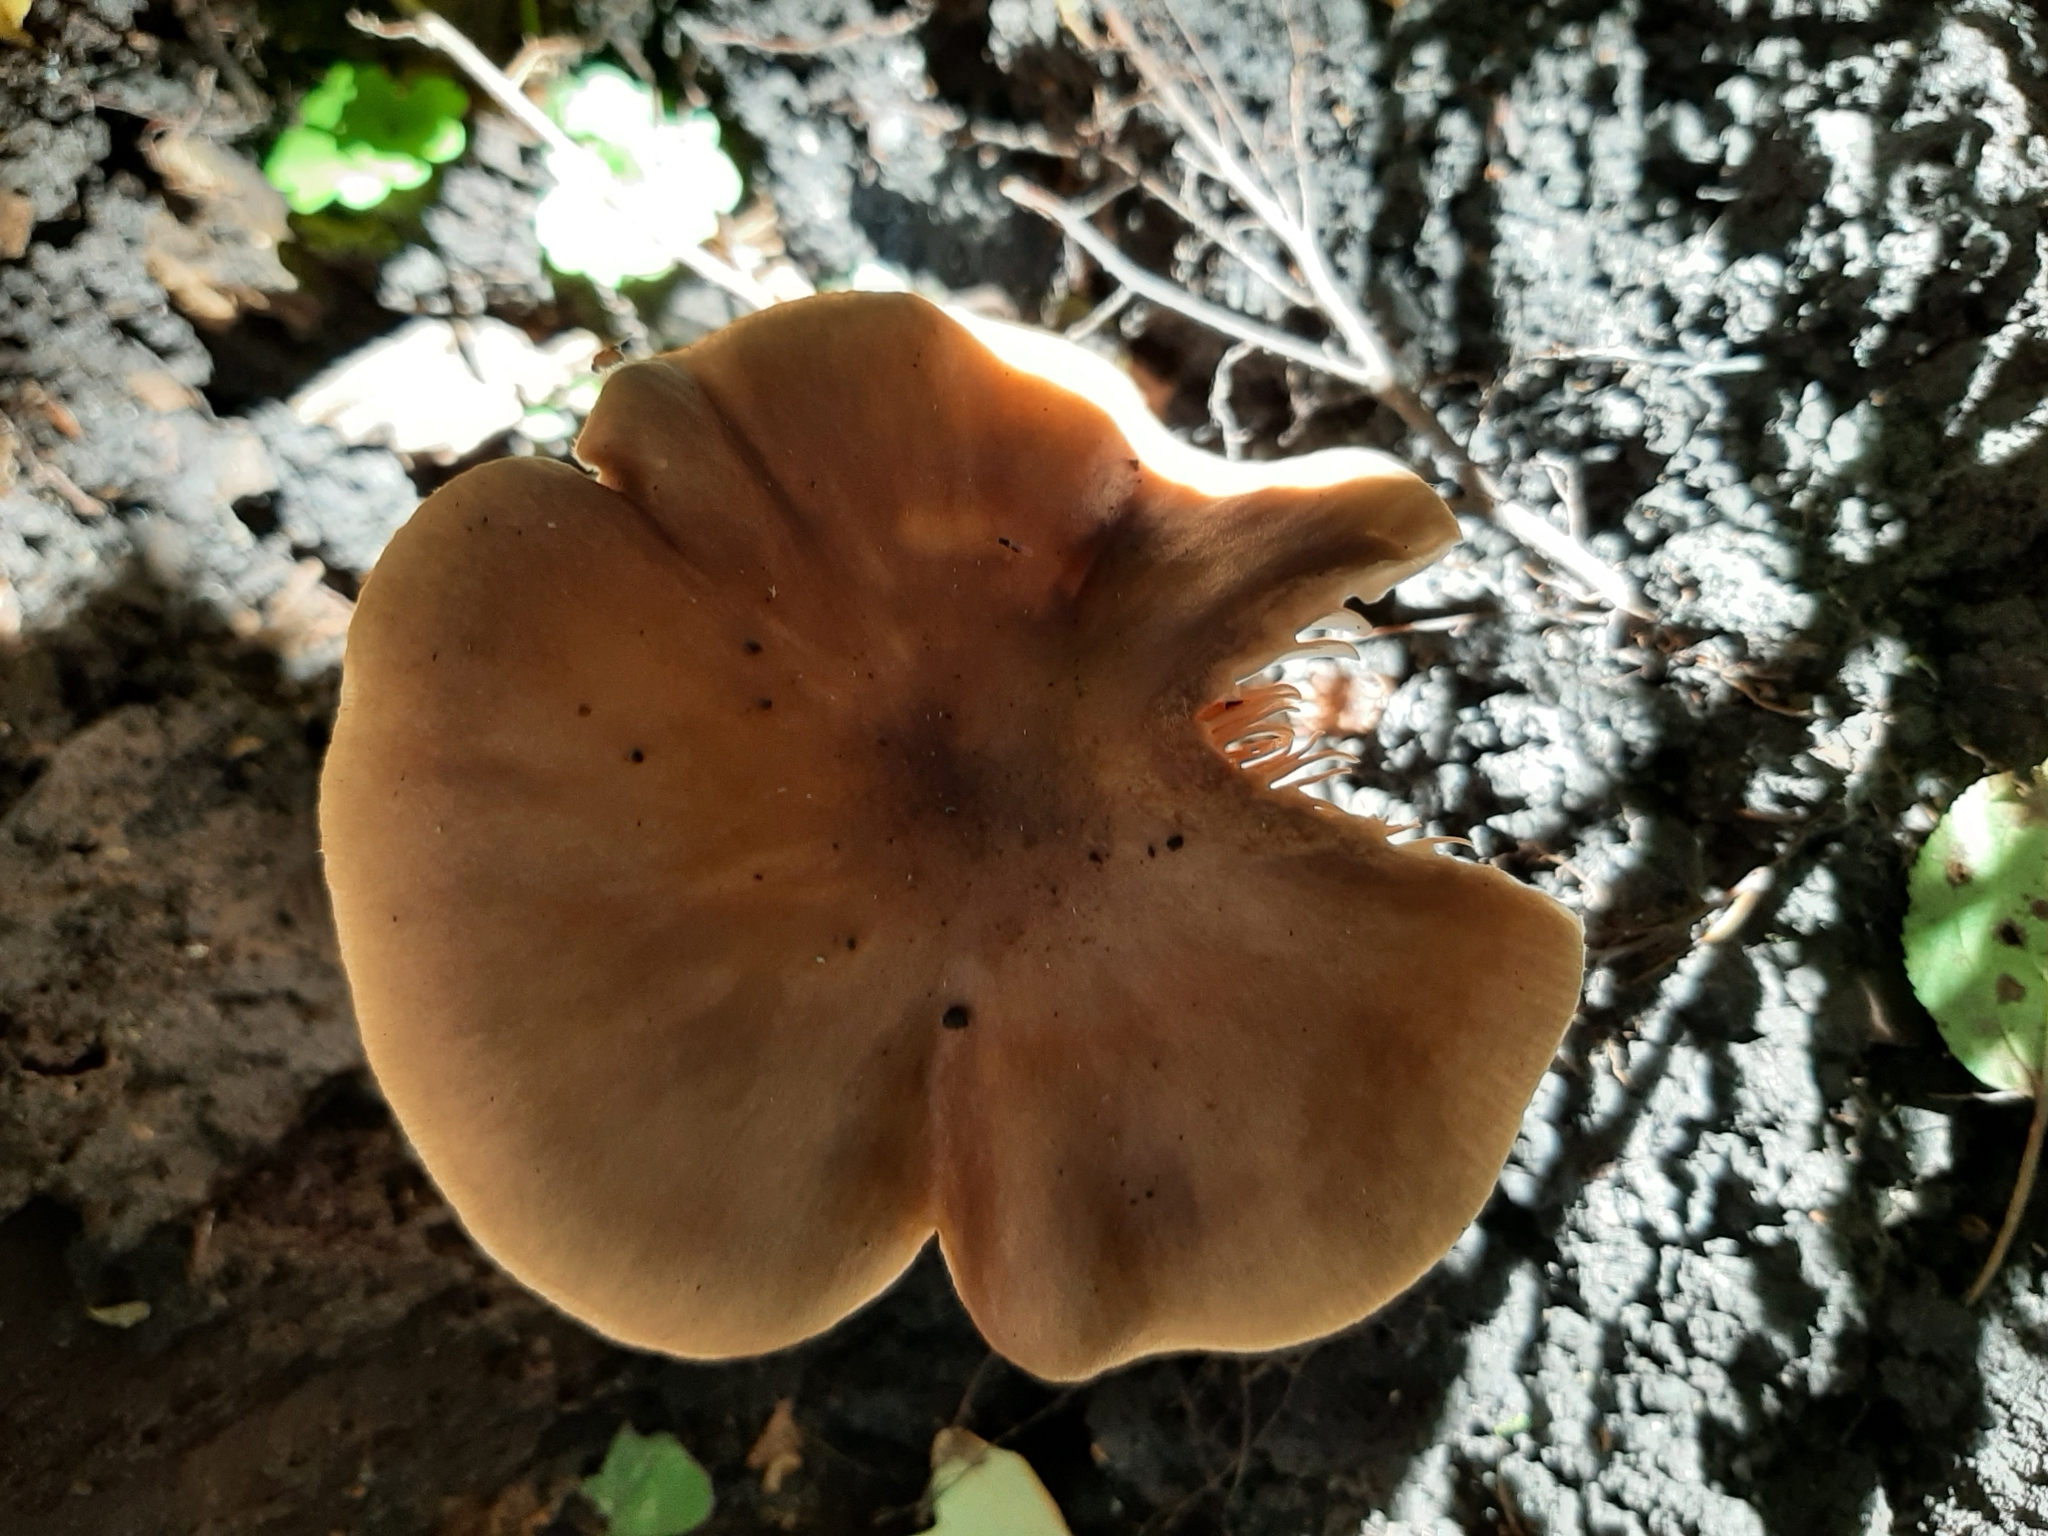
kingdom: Fungi
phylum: Basidiomycota
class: Agaricomycetes
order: Agaricales
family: Pluteaceae
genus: Pluteus
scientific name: Pluteus cervinus
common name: Deer shield
